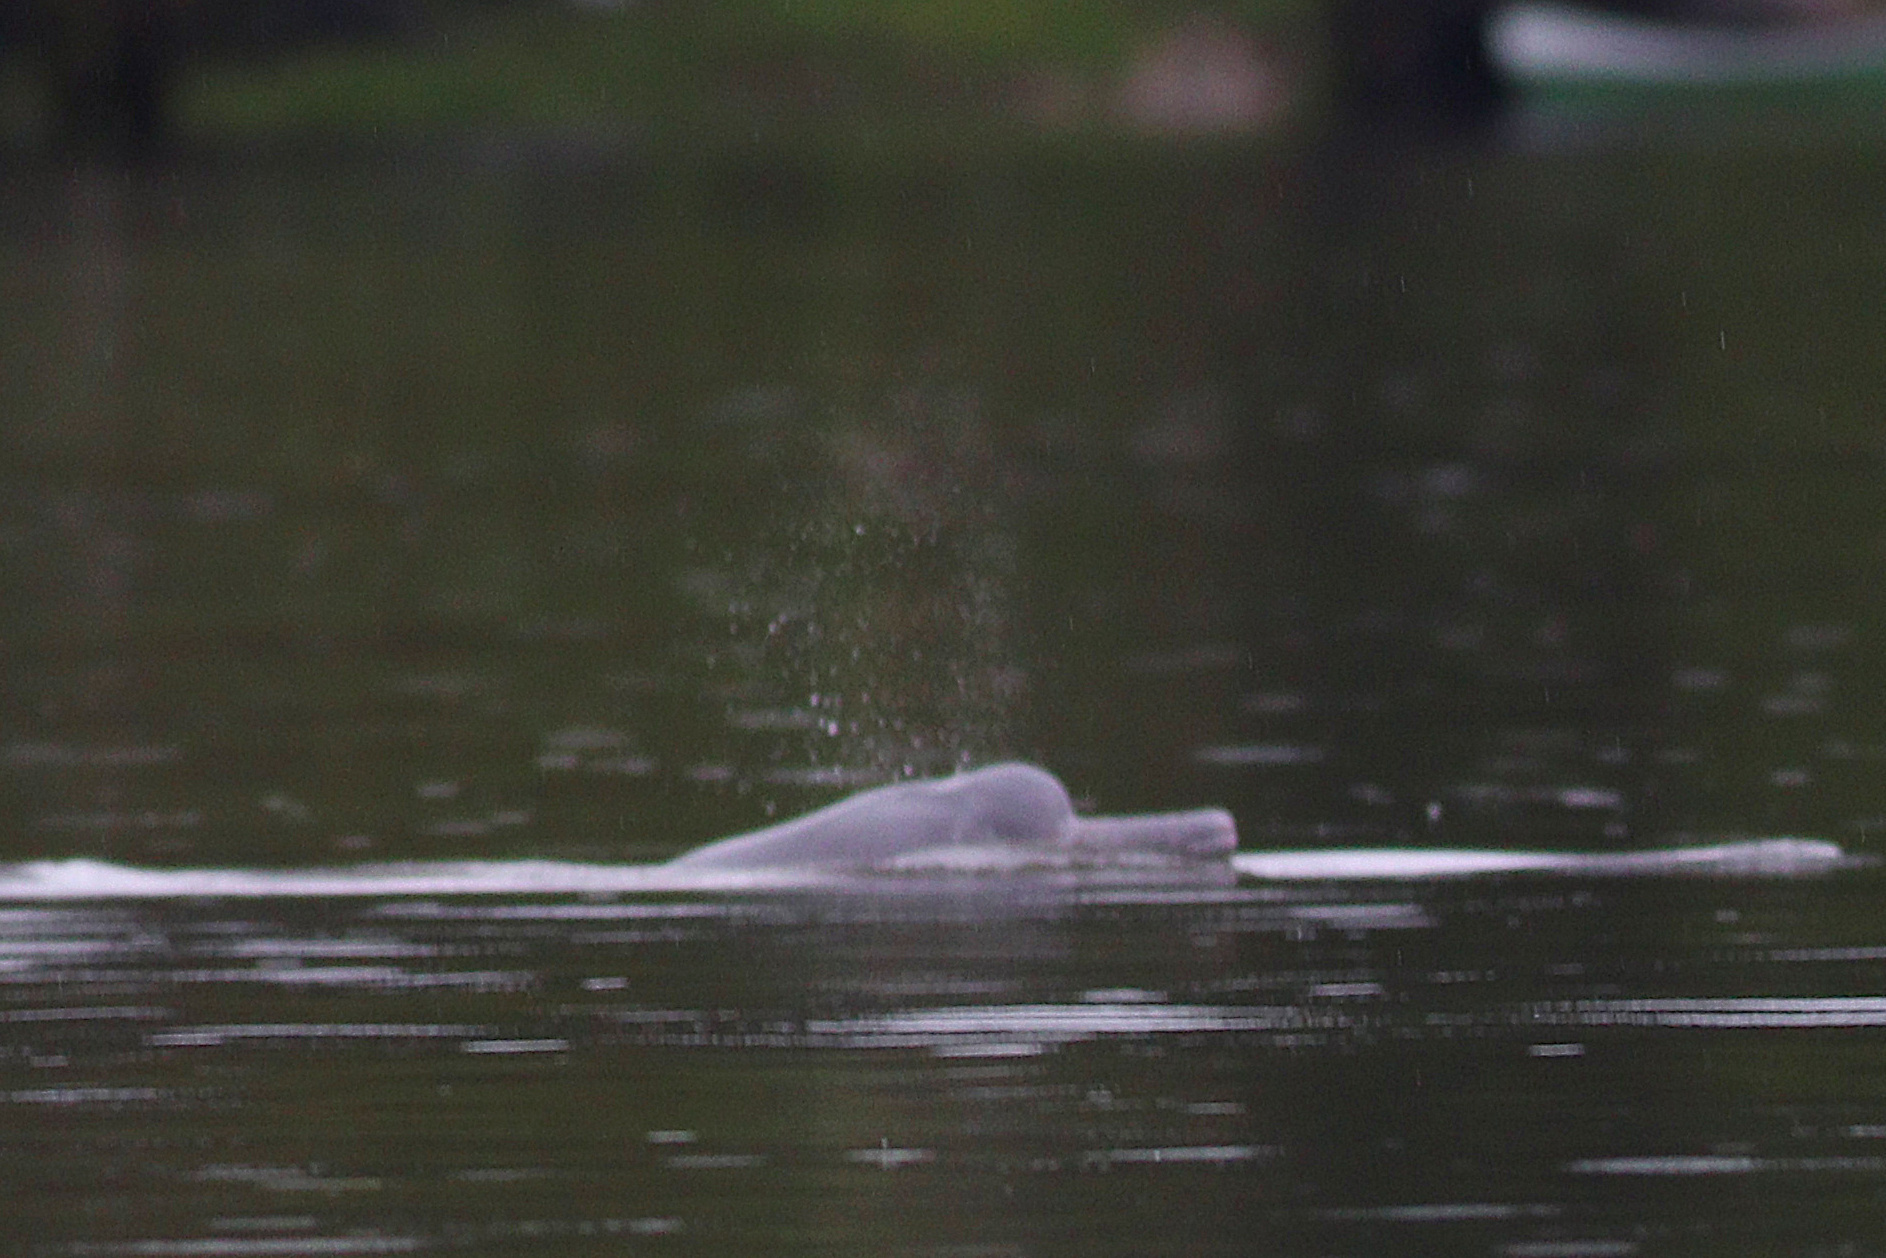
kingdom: Animalia
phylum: Chordata
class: Mammalia
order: Cetacea
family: Iniidae
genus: Inia
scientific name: Inia geoffrensis
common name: Amazon river dolphin
